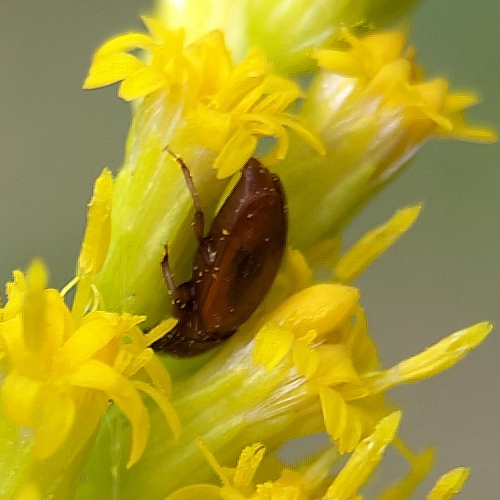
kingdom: Animalia
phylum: Arthropoda
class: Insecta
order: Coleoptera
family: Nitidulidae
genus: Epuraea
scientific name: Epuraea
